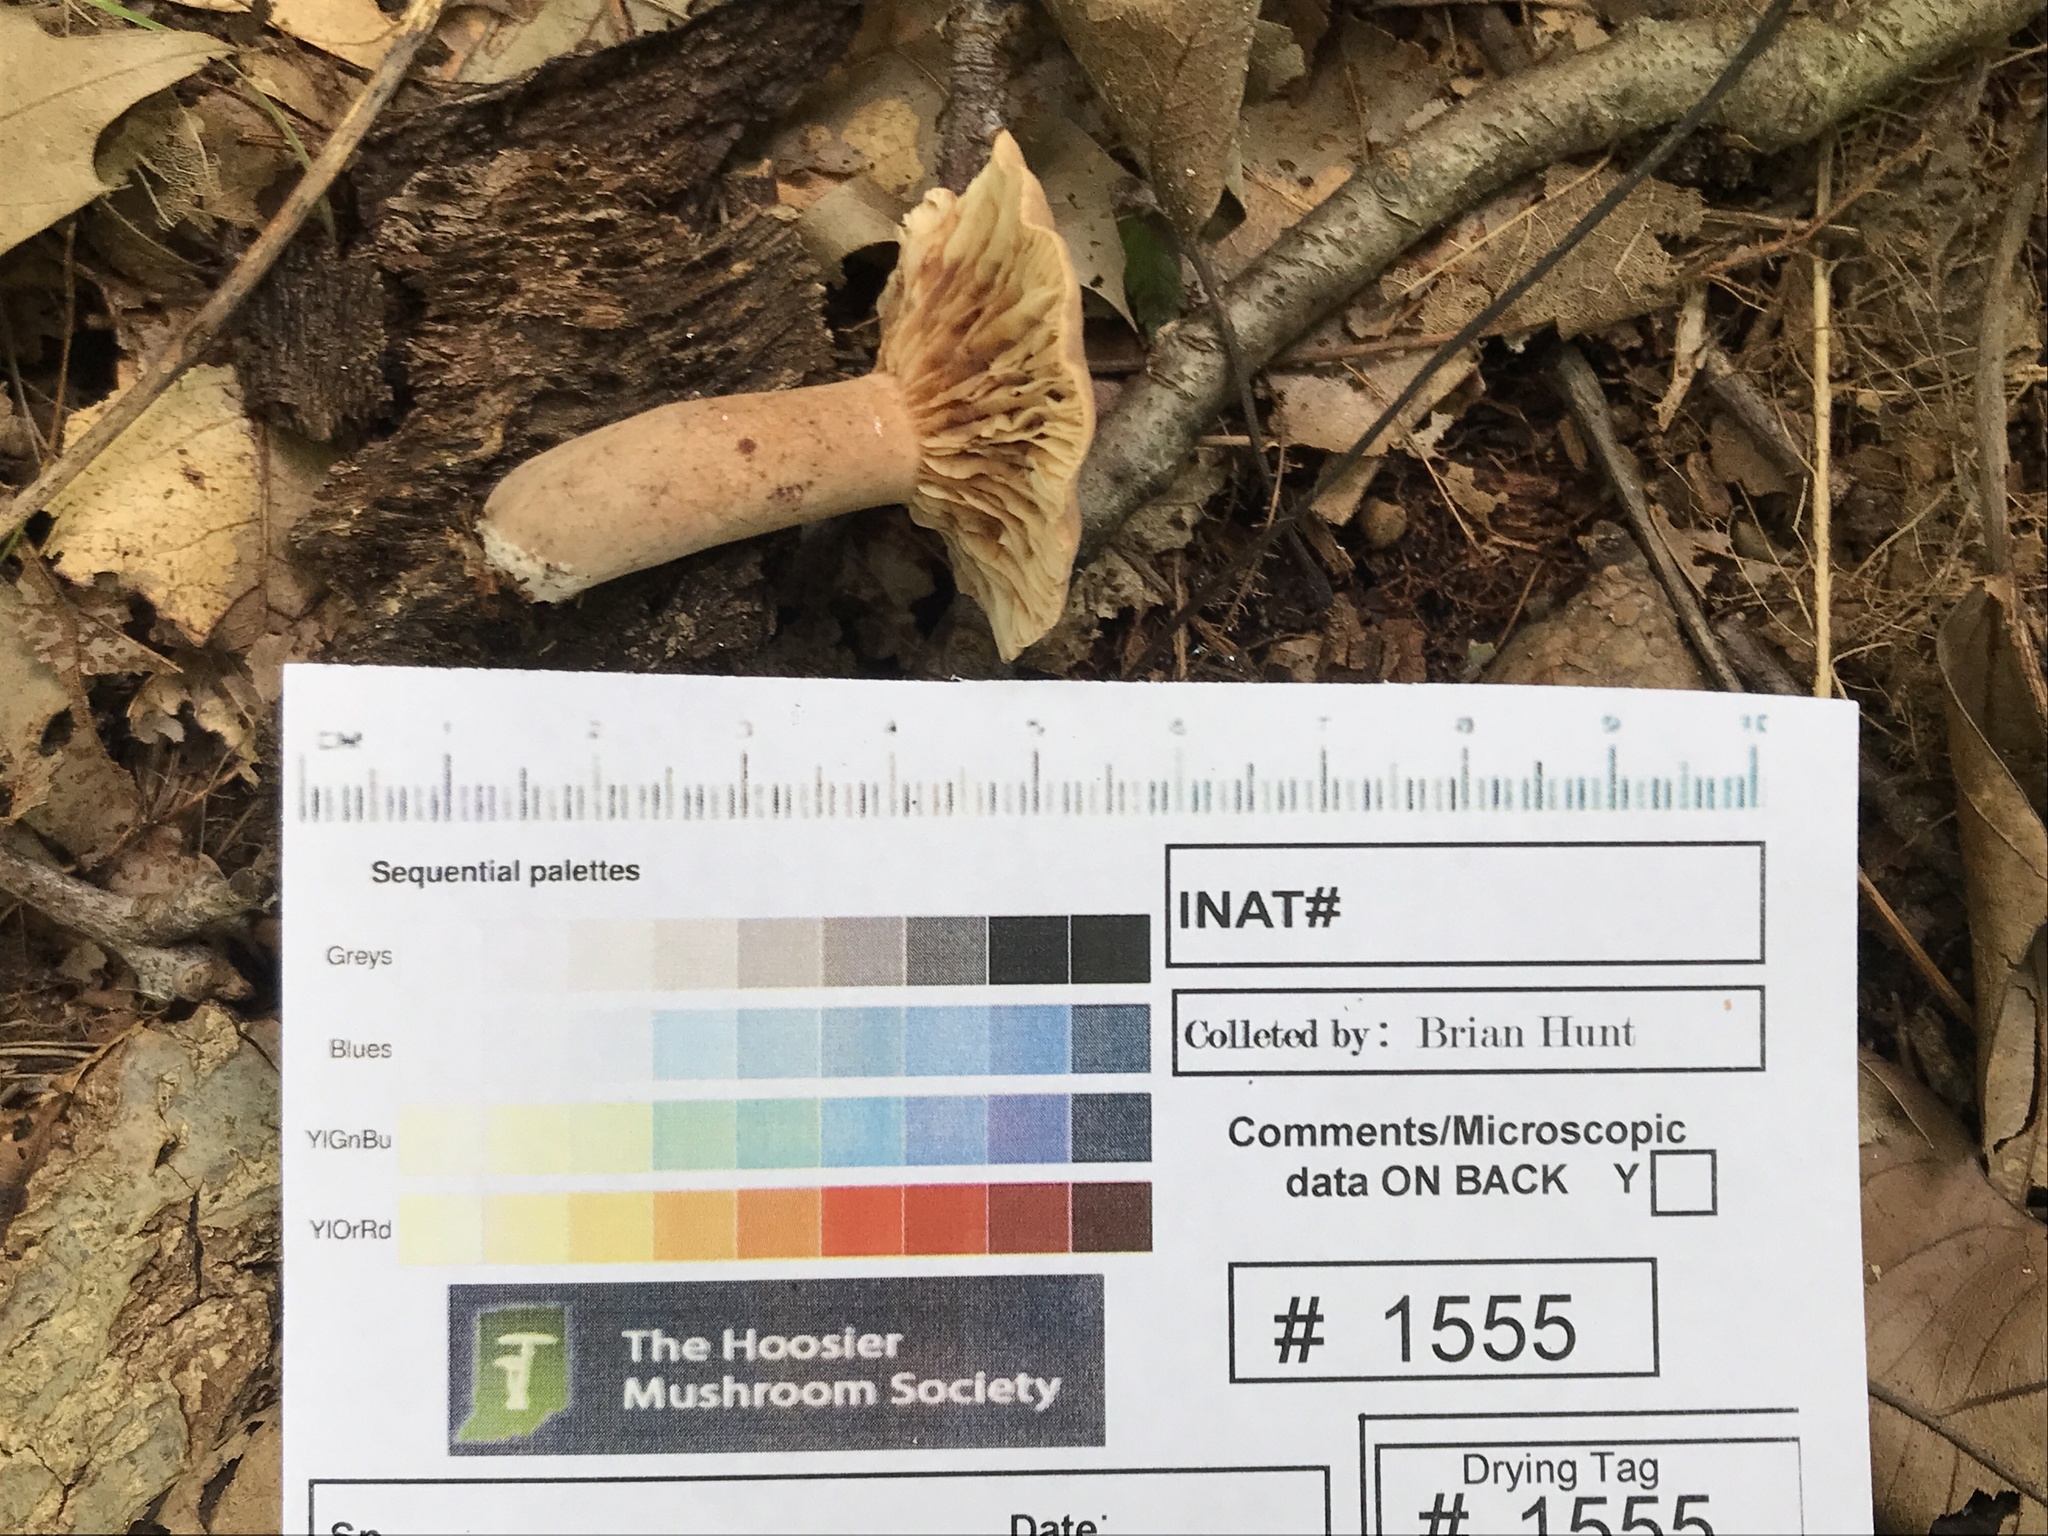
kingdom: Fungi
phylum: Basidiomycota
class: Agaricomycetes
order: Russulales
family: Russulaceae
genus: Lactarius
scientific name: Lactarius quietus
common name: Oak milk-cap
